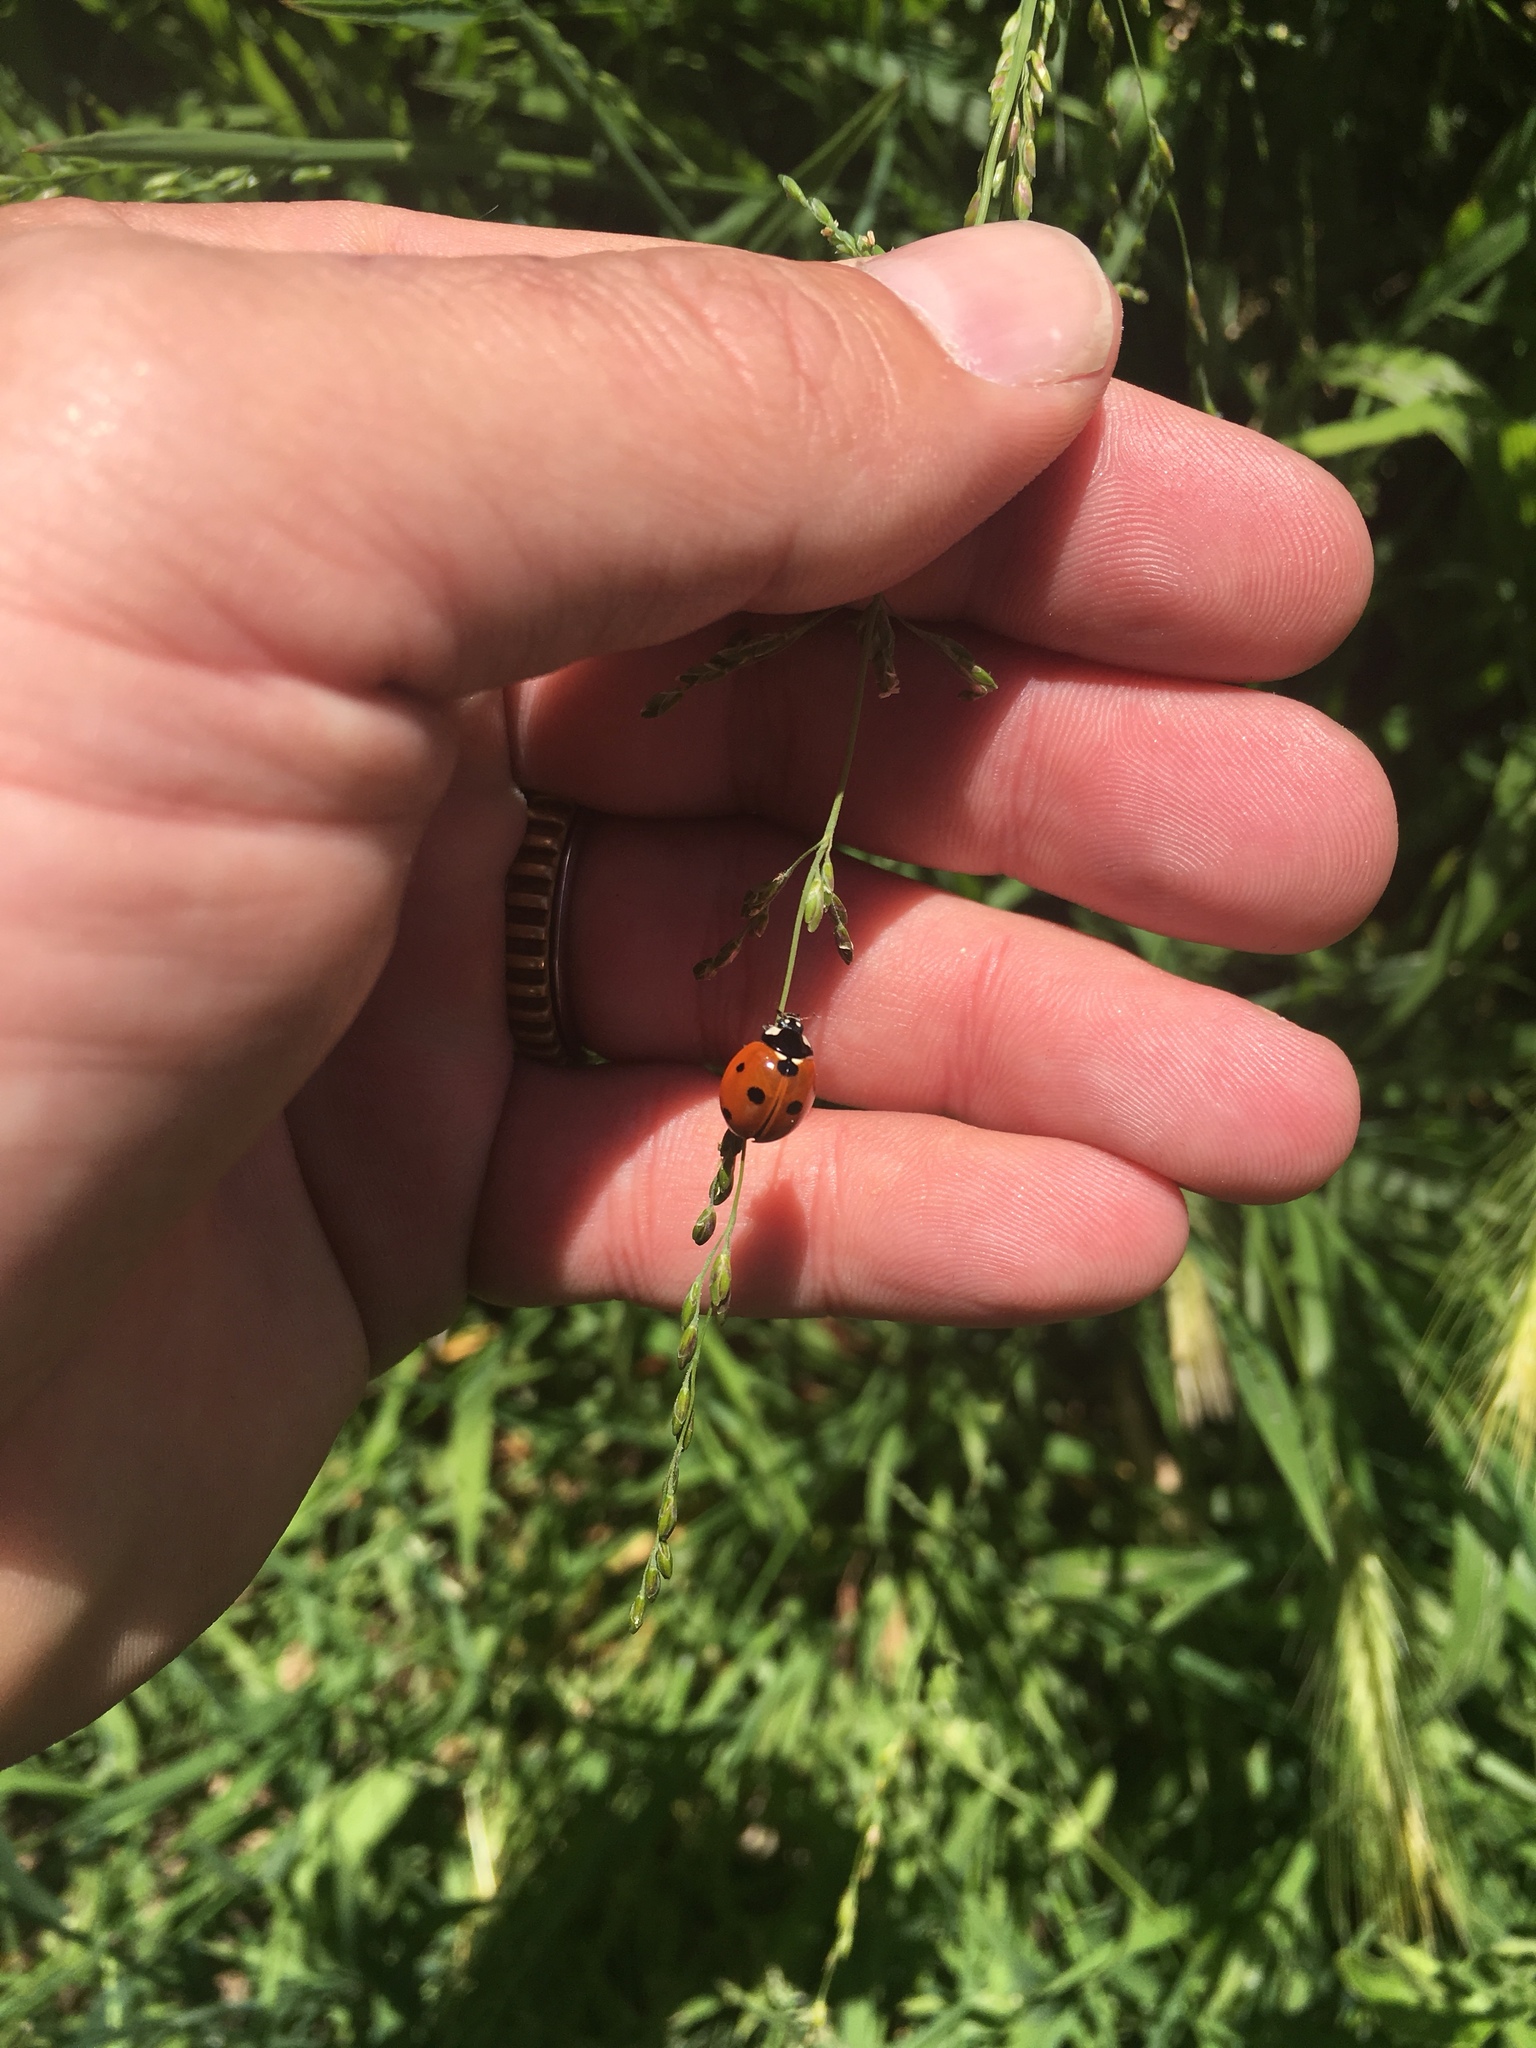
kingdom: Animalia
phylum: Arthropoda
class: Insecta
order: Coleoptera
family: Coccinellidae
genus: Coccinella
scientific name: Coccinella septempunctata
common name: Sevenspotted lady beetle
